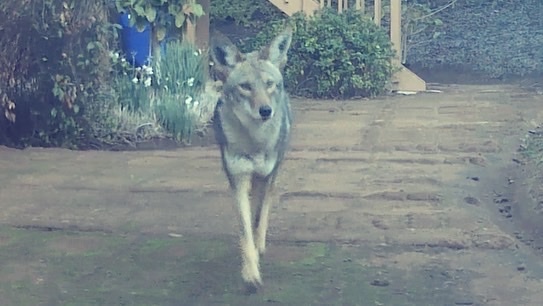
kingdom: Animalia
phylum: Chordata
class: Mammalia
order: Carnivora
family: Canidae
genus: Canis
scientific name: Canis latrans
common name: Coyote
